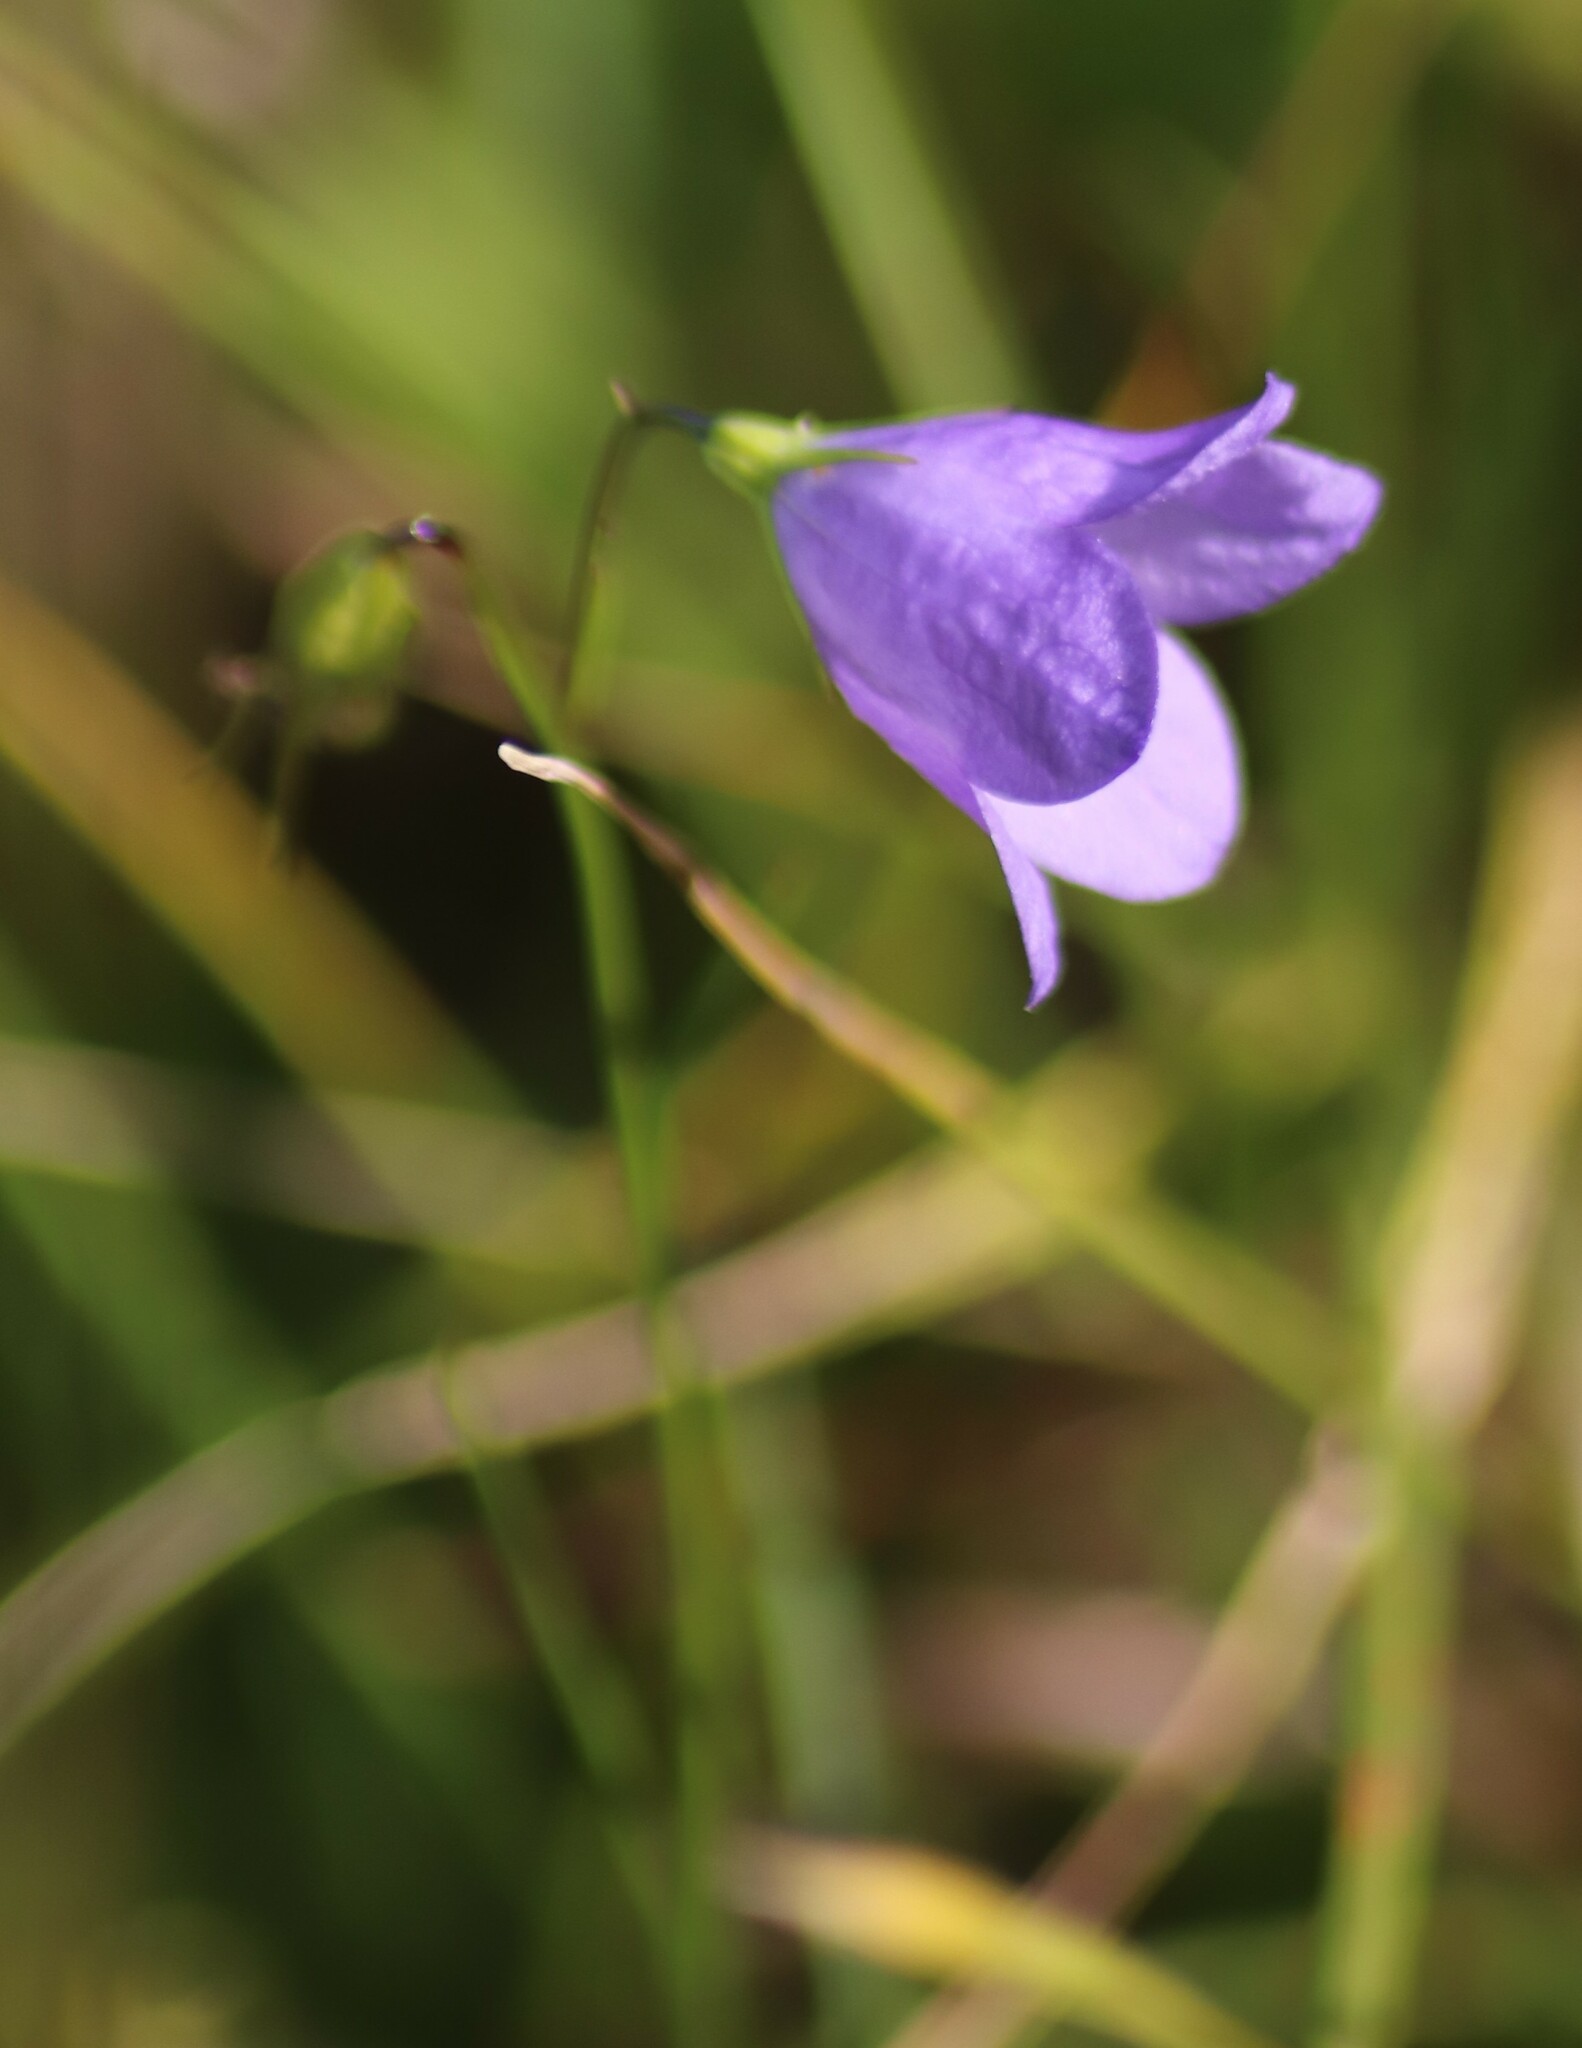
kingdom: Plantae
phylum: Tracheophyta
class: Magnoliopsida
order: Asterales
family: Campanulaceae
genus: Campanula
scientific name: Campanula petiolata
